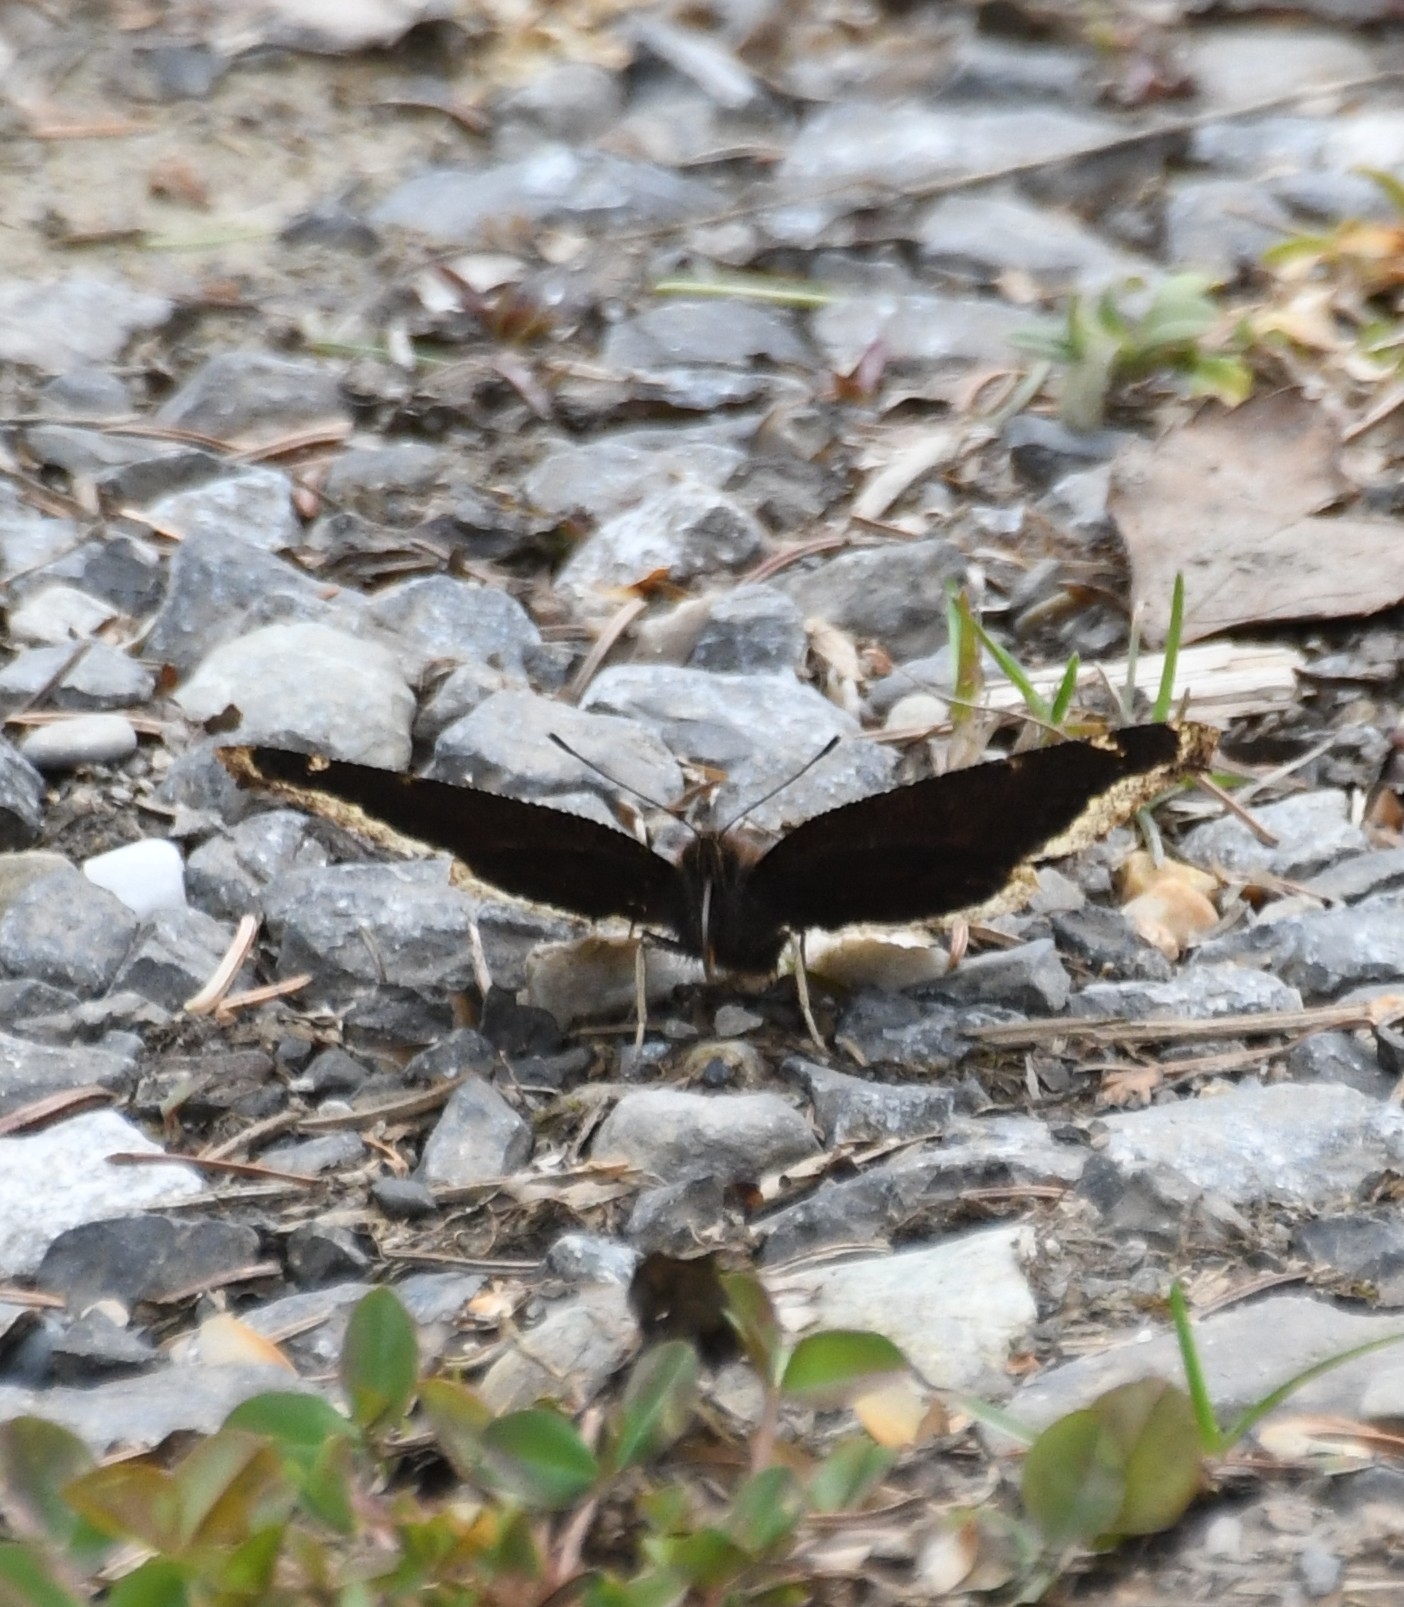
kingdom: Animalia
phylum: Arthropoda
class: Insecta
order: Lepidoptera
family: Nymphalidae
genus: Nymphalis
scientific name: Nymphalis antiopa
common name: Camberwell beauty
